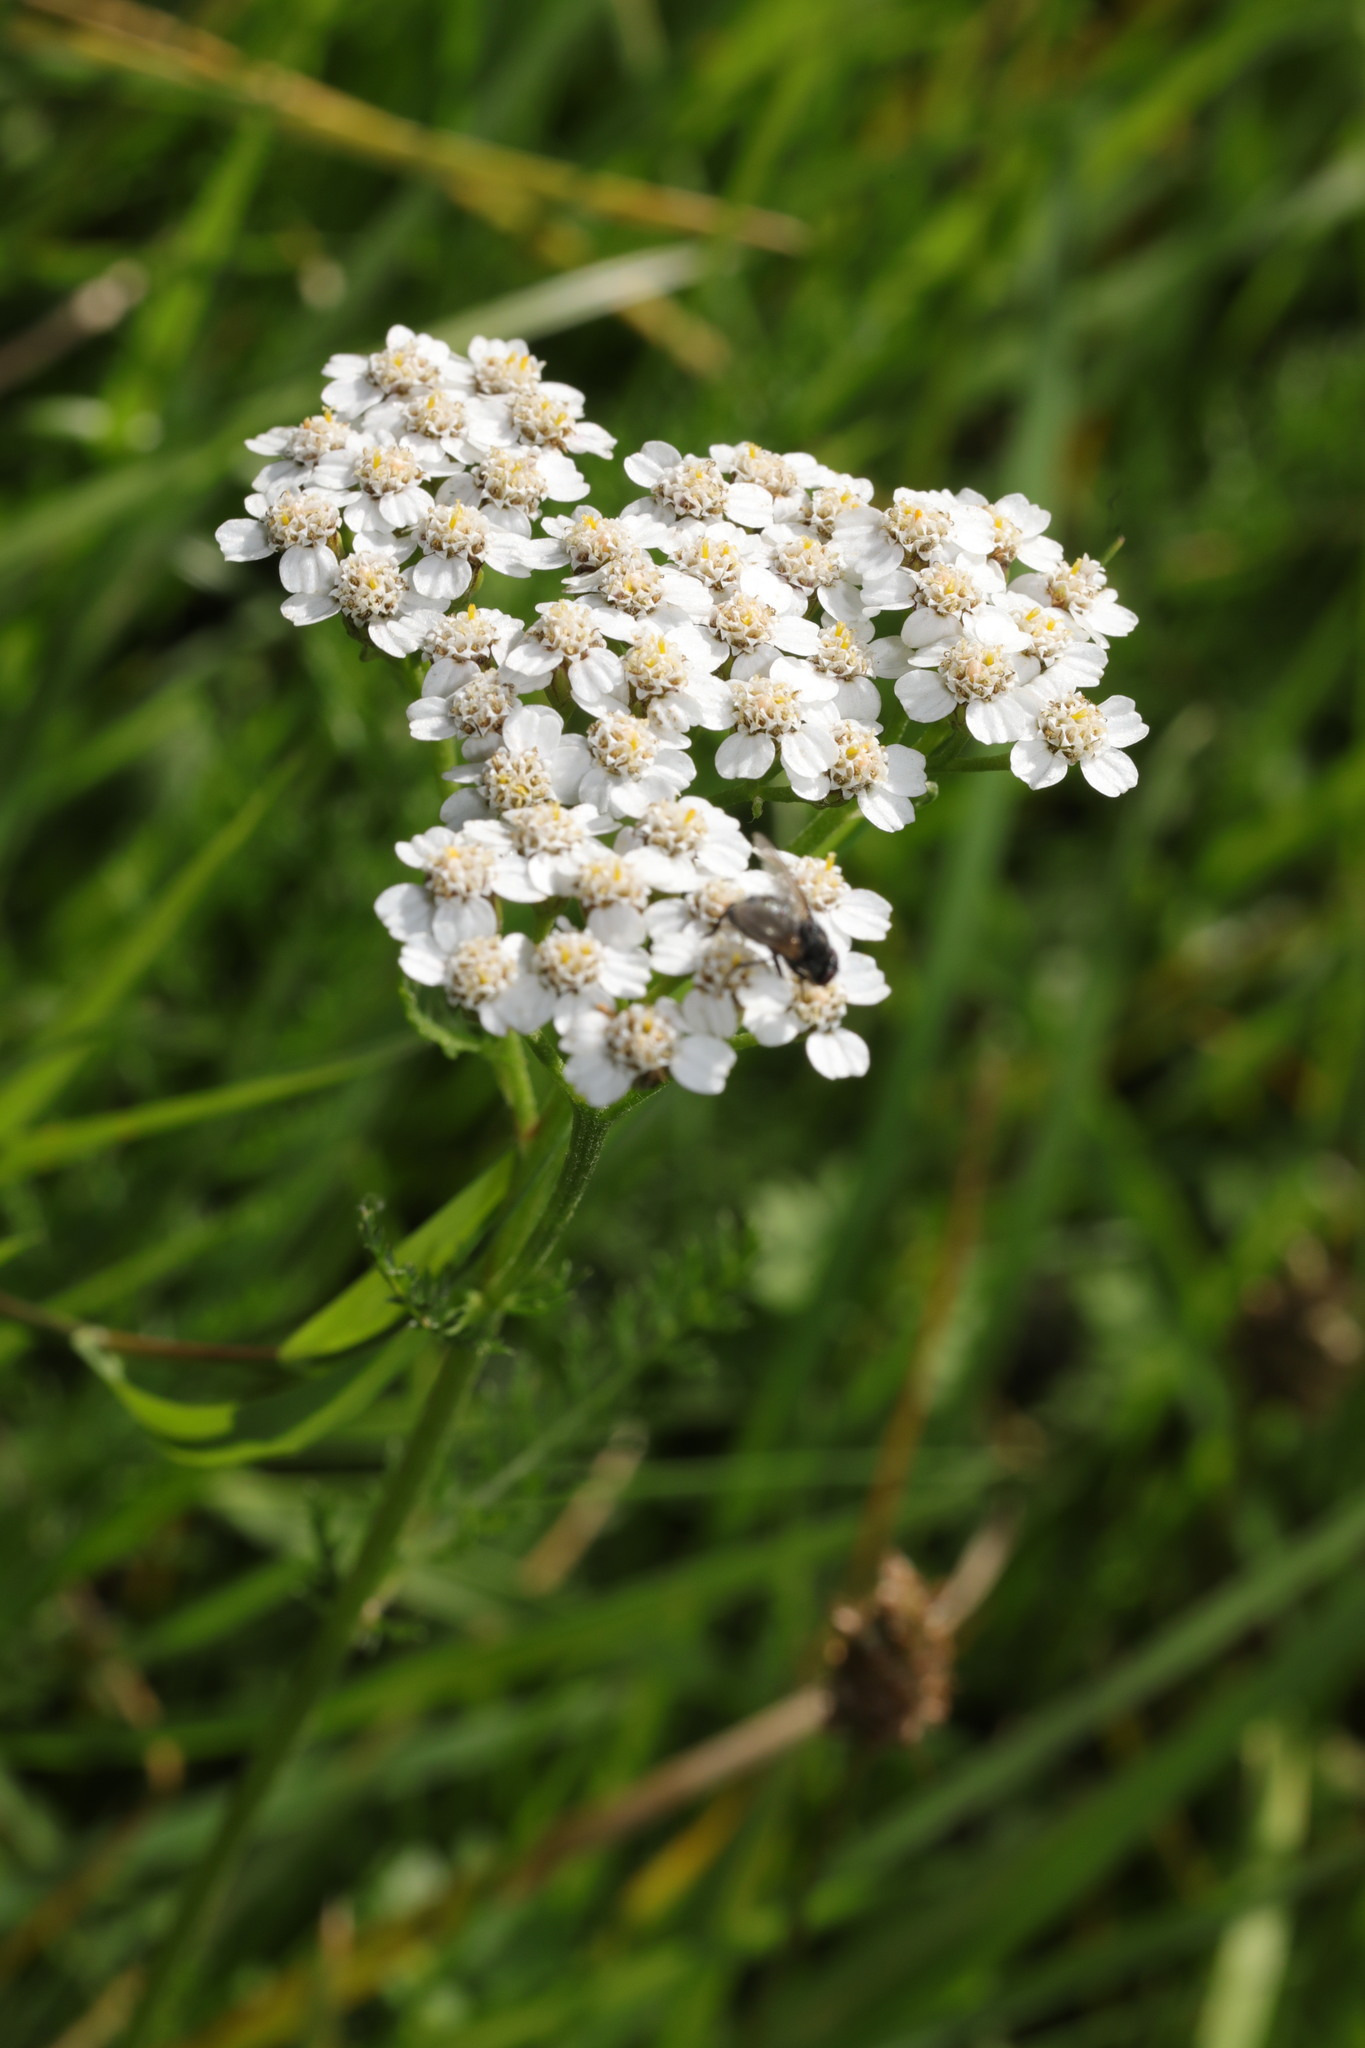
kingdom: Plantae
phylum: Tracheophyta
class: Magnoliopsida
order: Asterales
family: Asteraceae
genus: Achillea
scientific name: Achillea millefolium
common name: Yarrow
